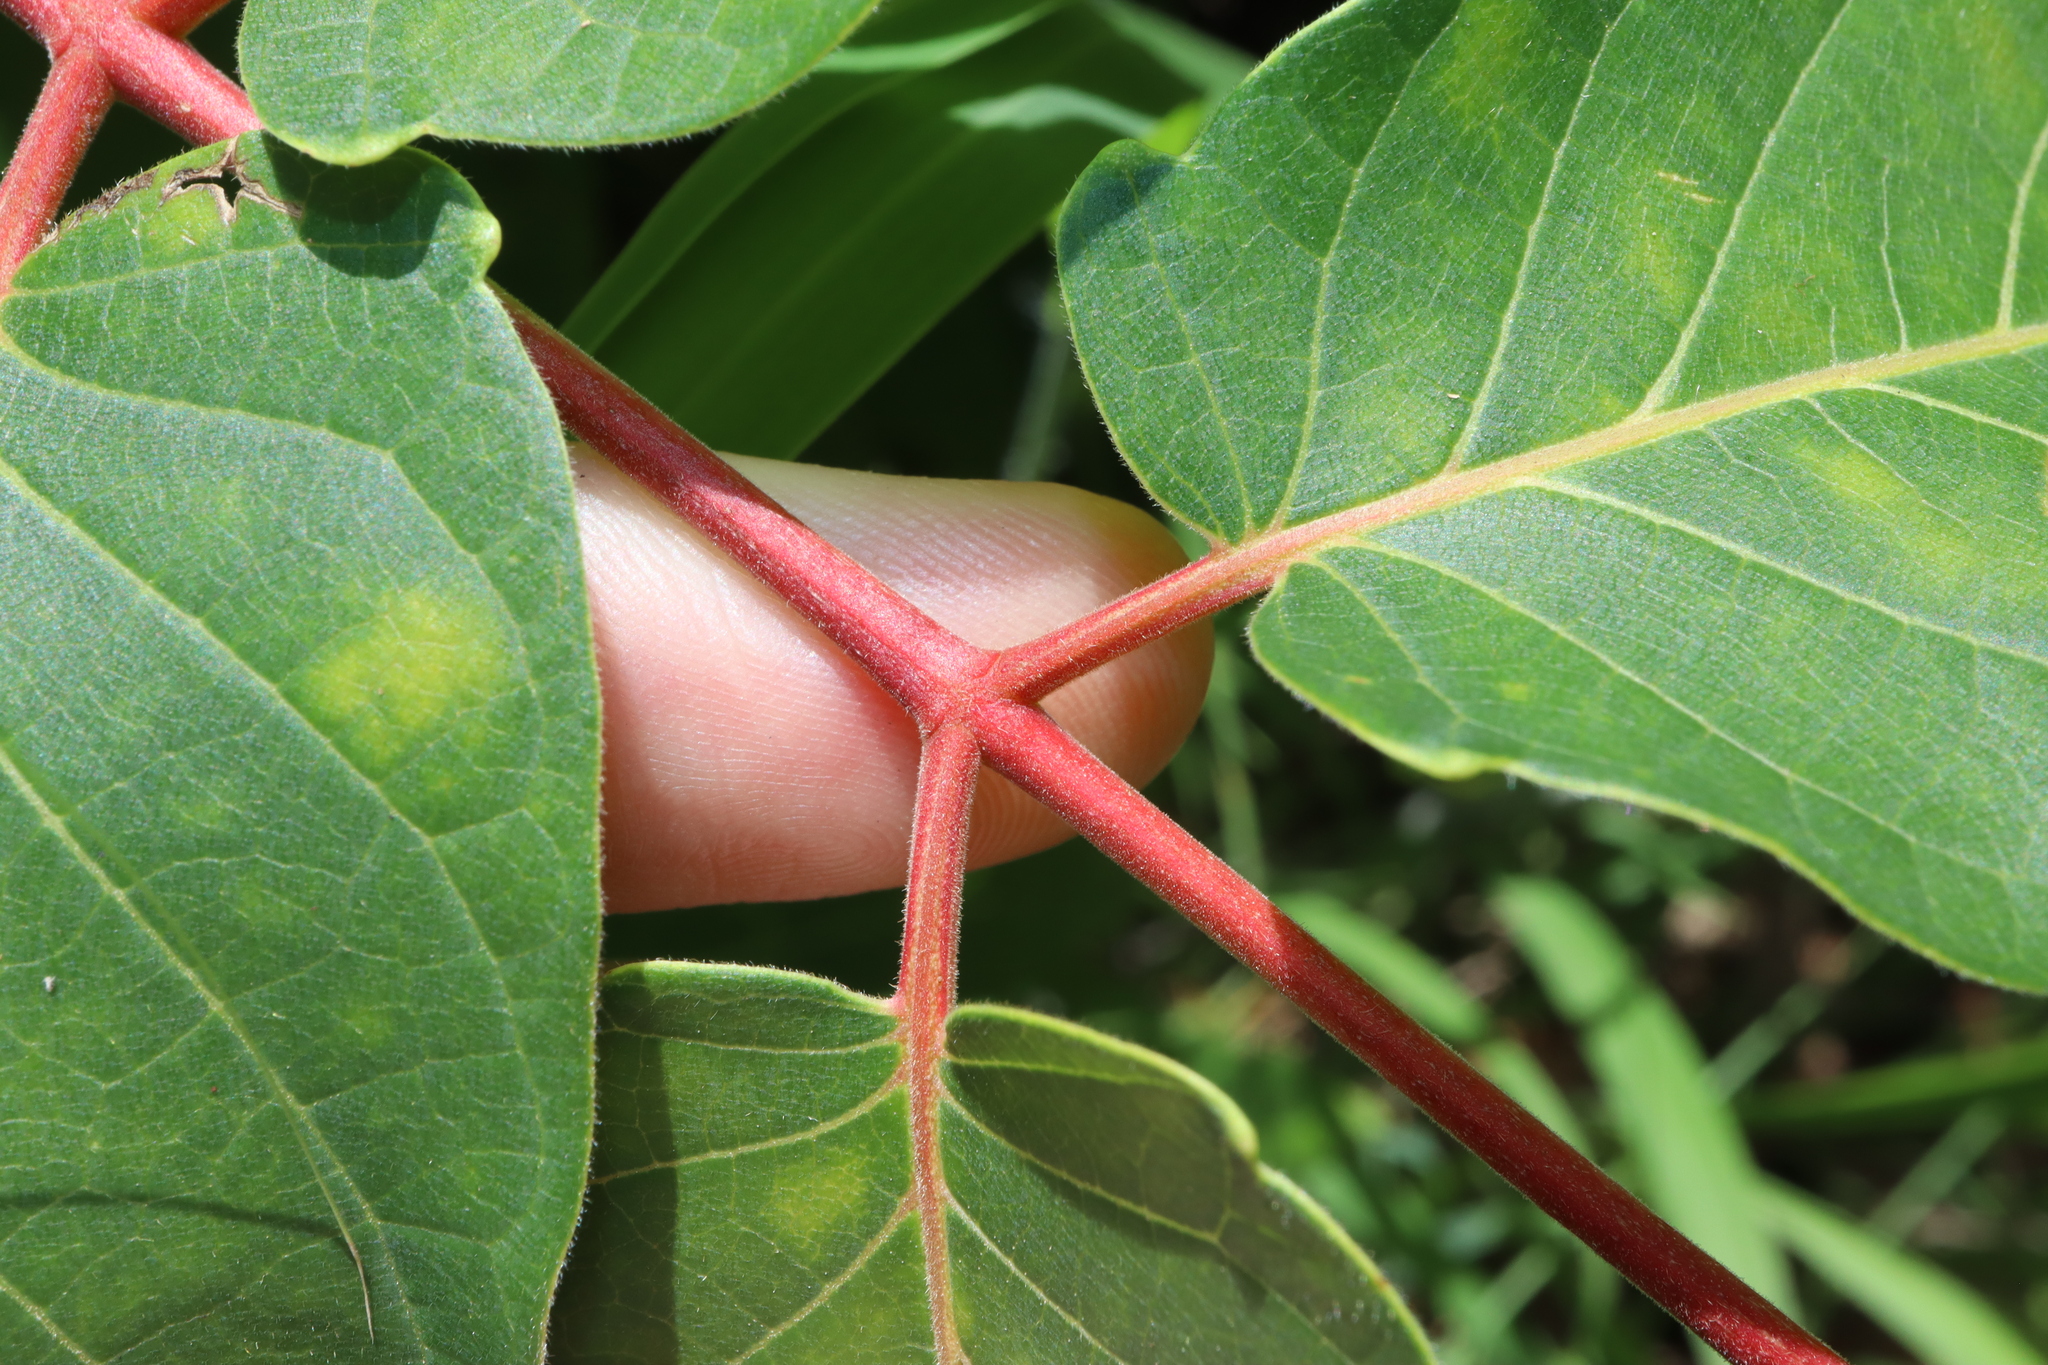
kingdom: Plantae
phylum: Tracheophyta
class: Magnoliopsida
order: Sapindales
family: Simaroubaceae
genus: Ailanthus
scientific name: Ailanthus altissima
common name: Tree-of-heaven
